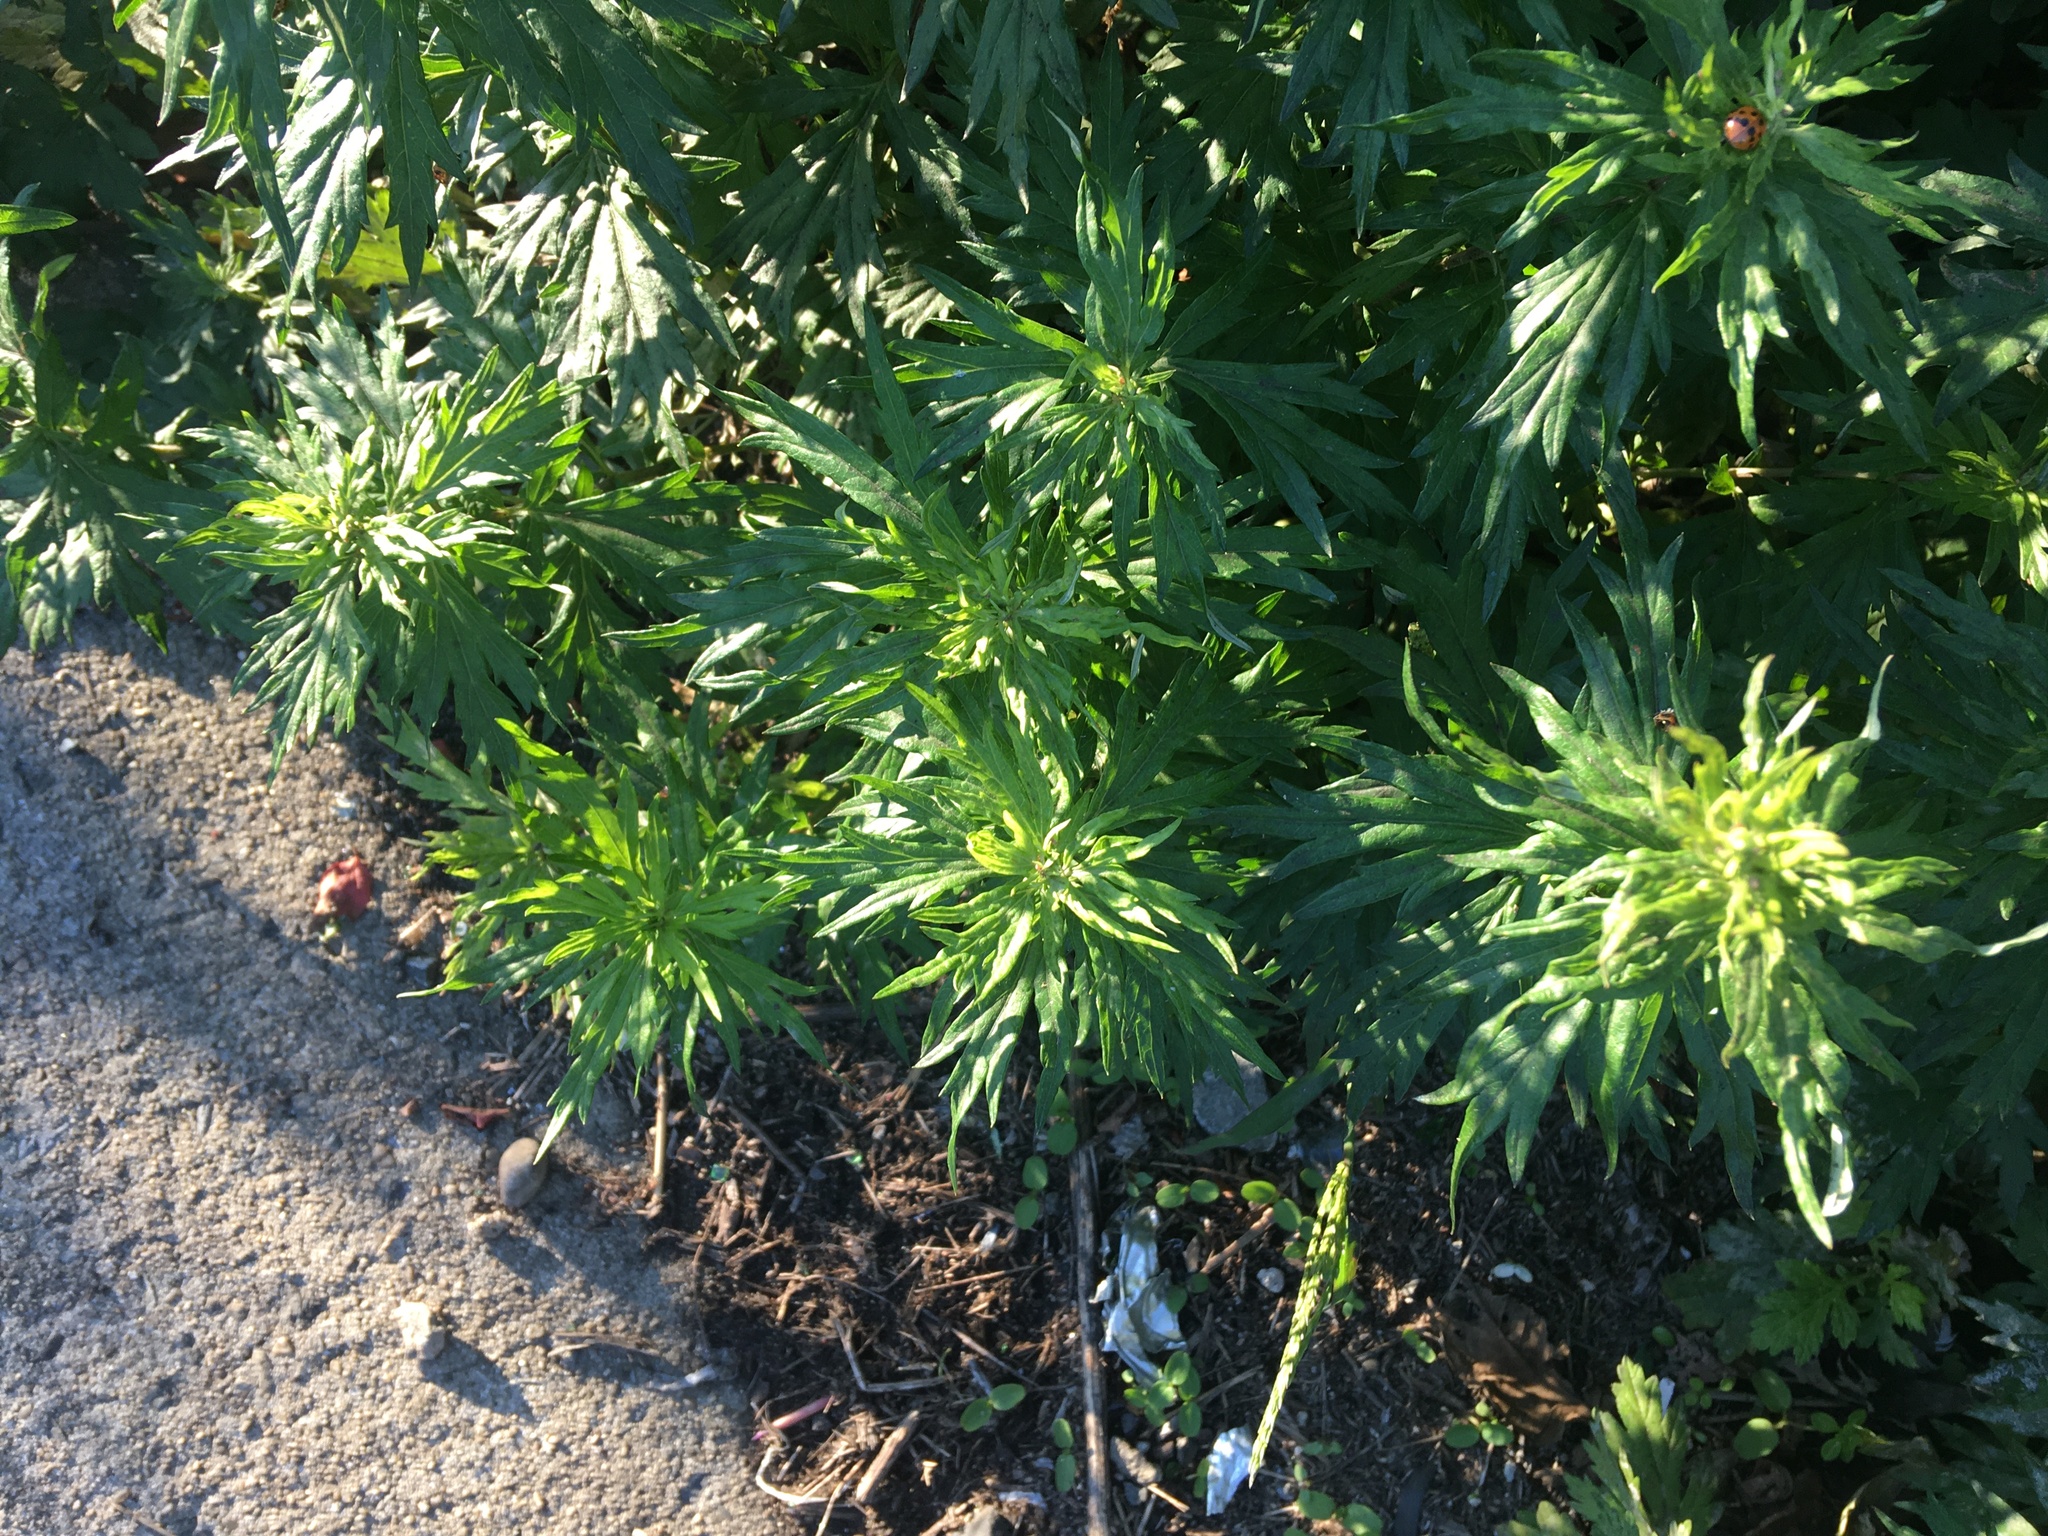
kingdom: Plantae
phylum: Tracheophyta
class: Magnoliopsida
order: Asterales
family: Asteraceae
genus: Artemisia
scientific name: Artemisia vulgaris
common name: Mugwort
